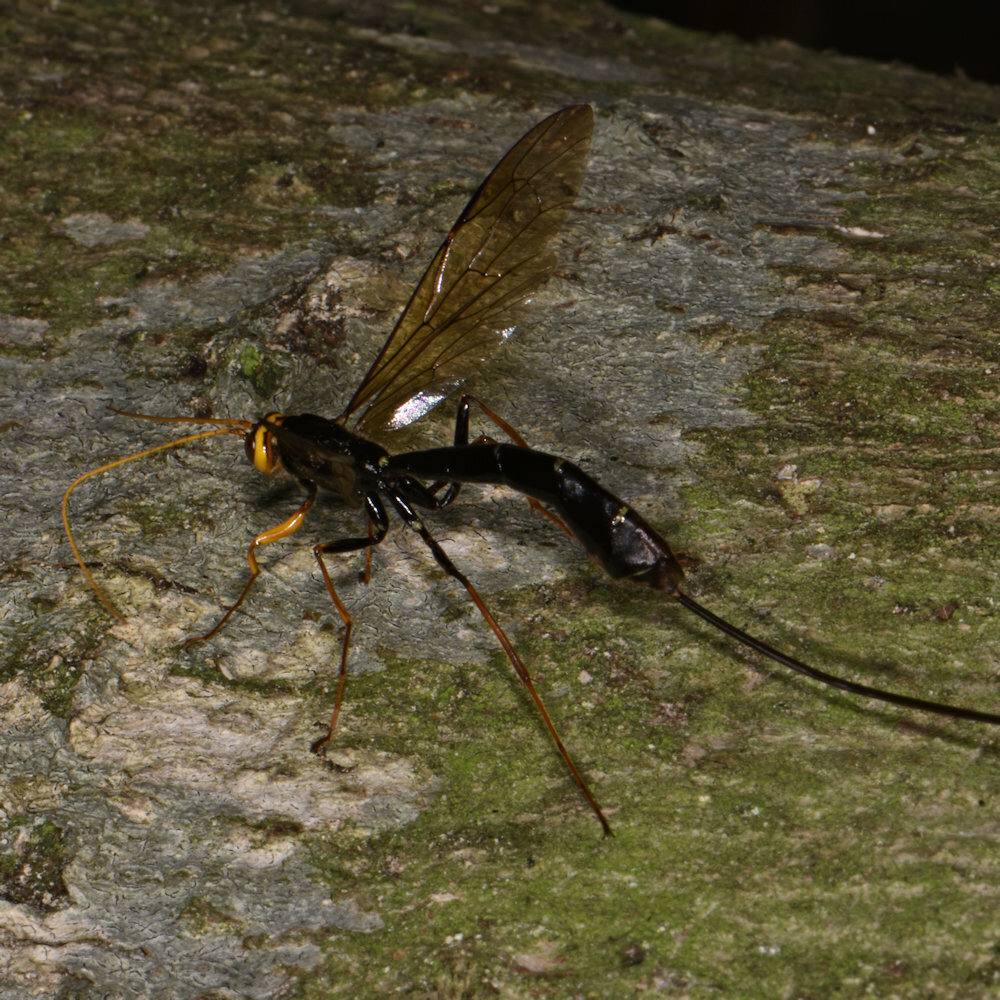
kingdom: Animalia
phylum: Arthropoda
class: Insecta
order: Hymenoptera
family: Ichneumonidae
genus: Megarhyssa
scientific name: Megarhyssa atrata
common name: Black giant ichneumonid wasp
